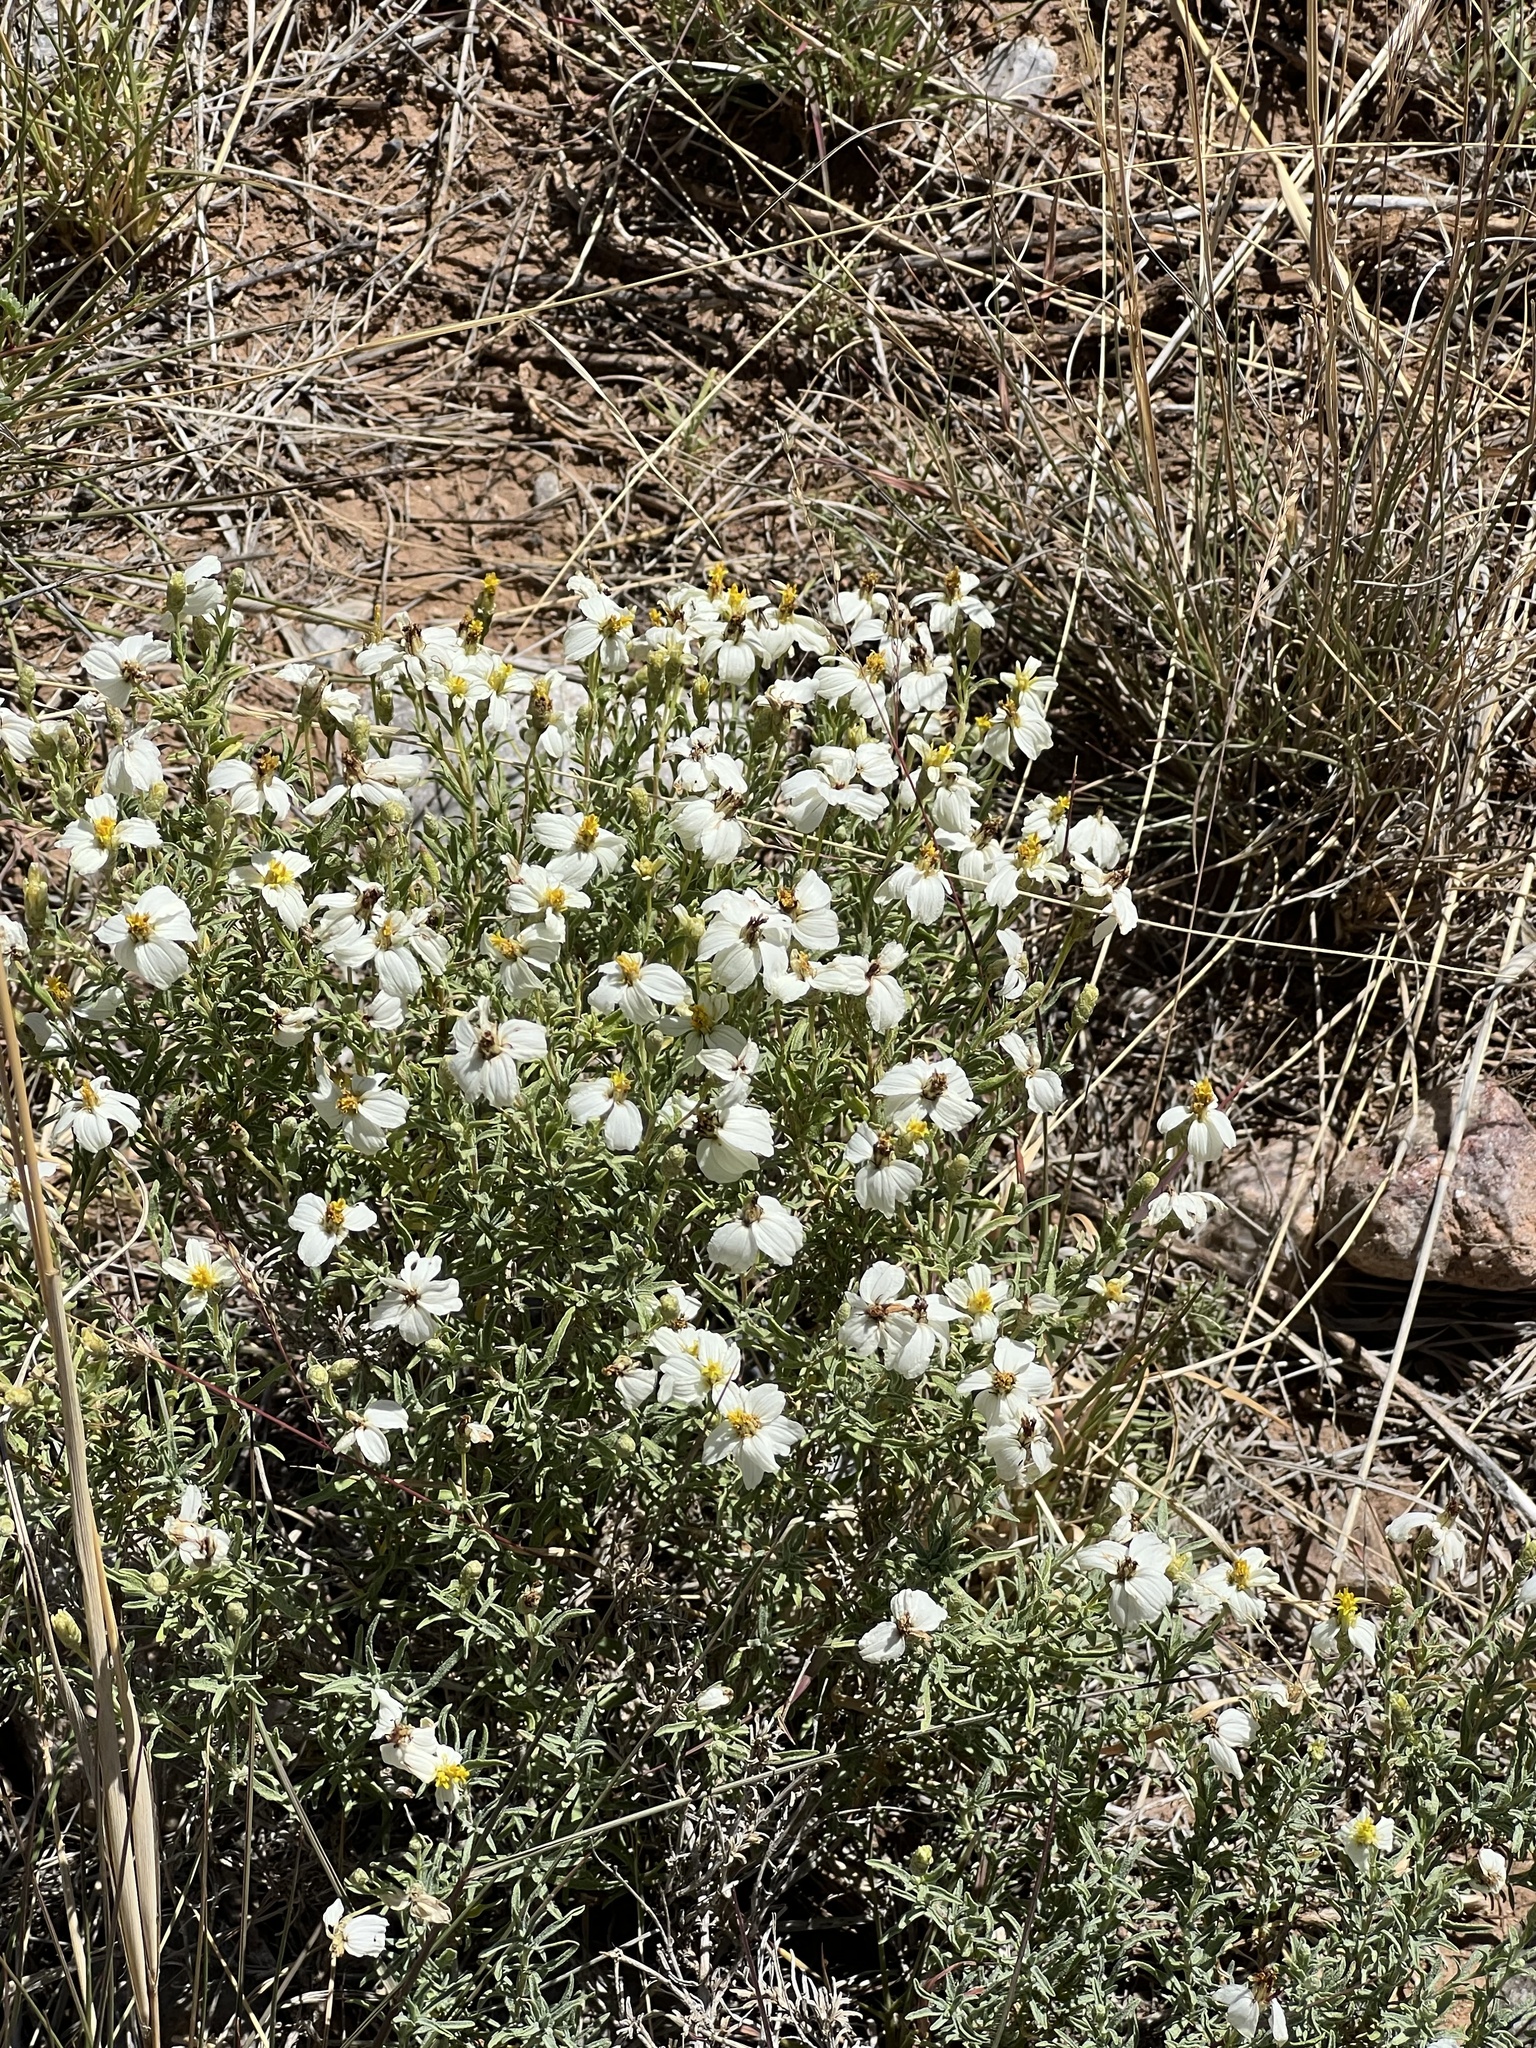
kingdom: Plantae
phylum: Tracheophyta
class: Magnoliopsida
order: Asterales
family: Asteraceae
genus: Zinnia
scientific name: Zinnia acerosa
